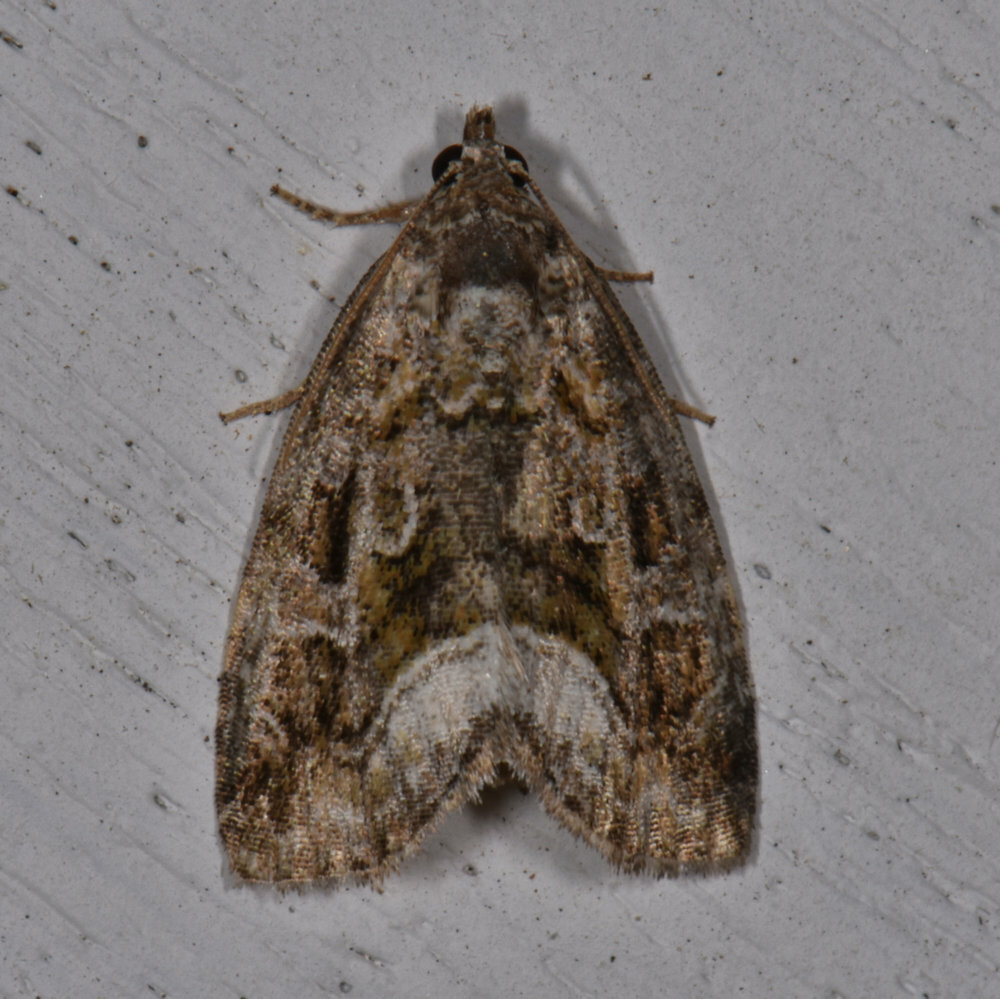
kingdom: Animalia
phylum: Arthropoda
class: Insecta
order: Lepidoptera
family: Noctuidae
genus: Protodeltote
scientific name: Protodeltote muscosula
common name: Large mossy glyph
